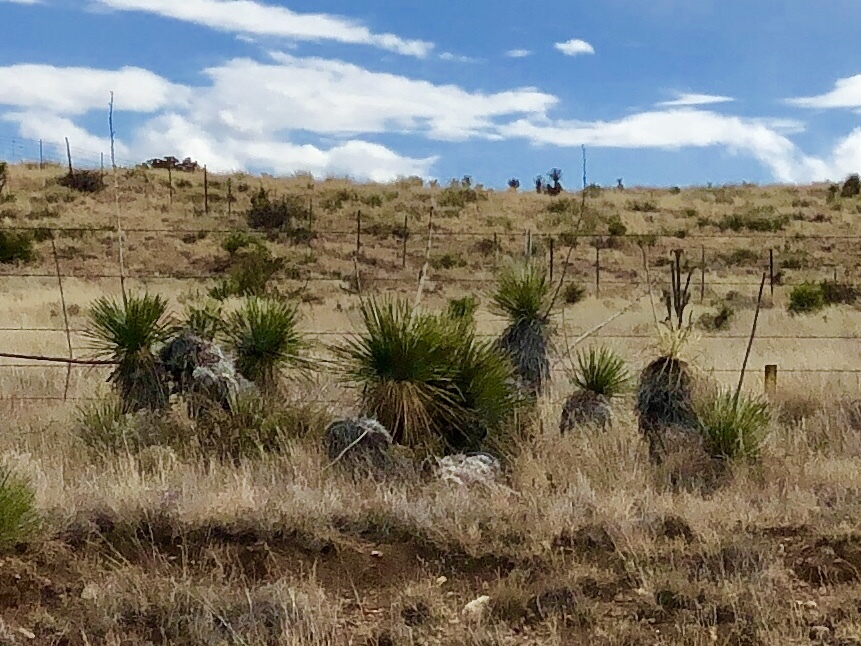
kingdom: Plantae
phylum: Tracheophyta
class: Liliopsida
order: Asparagales
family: Asparagaceae
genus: Yucca
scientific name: Yucca elata
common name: Palmella
